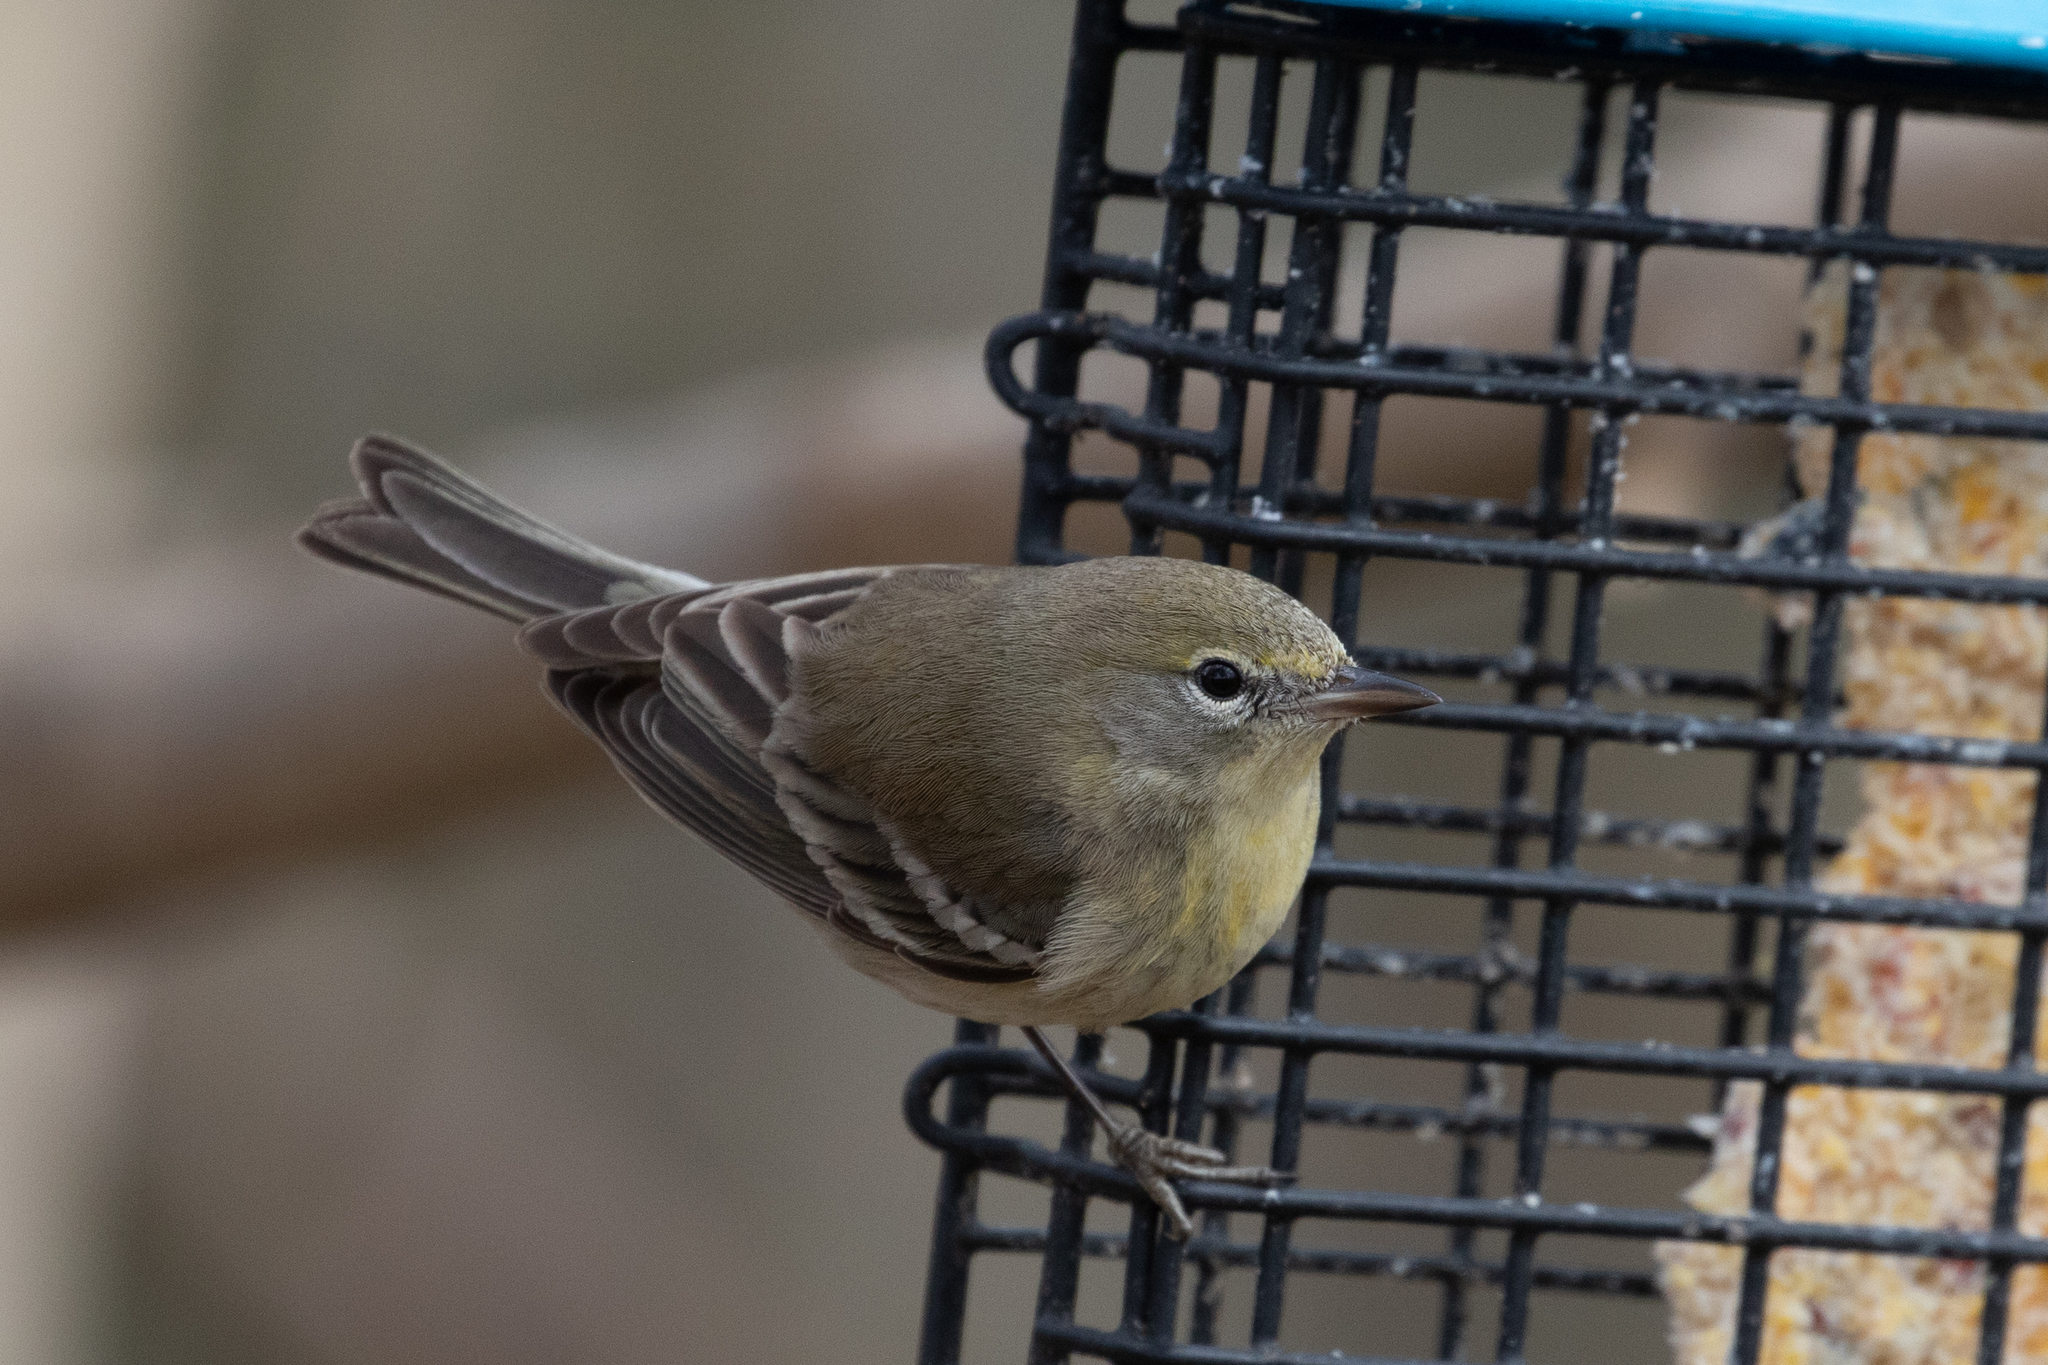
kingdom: Animalia
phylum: Chordata
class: Aves
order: Passeriformes
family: Parulidae
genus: Setophaga
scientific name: Setophaga pinus
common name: Pine warbler
